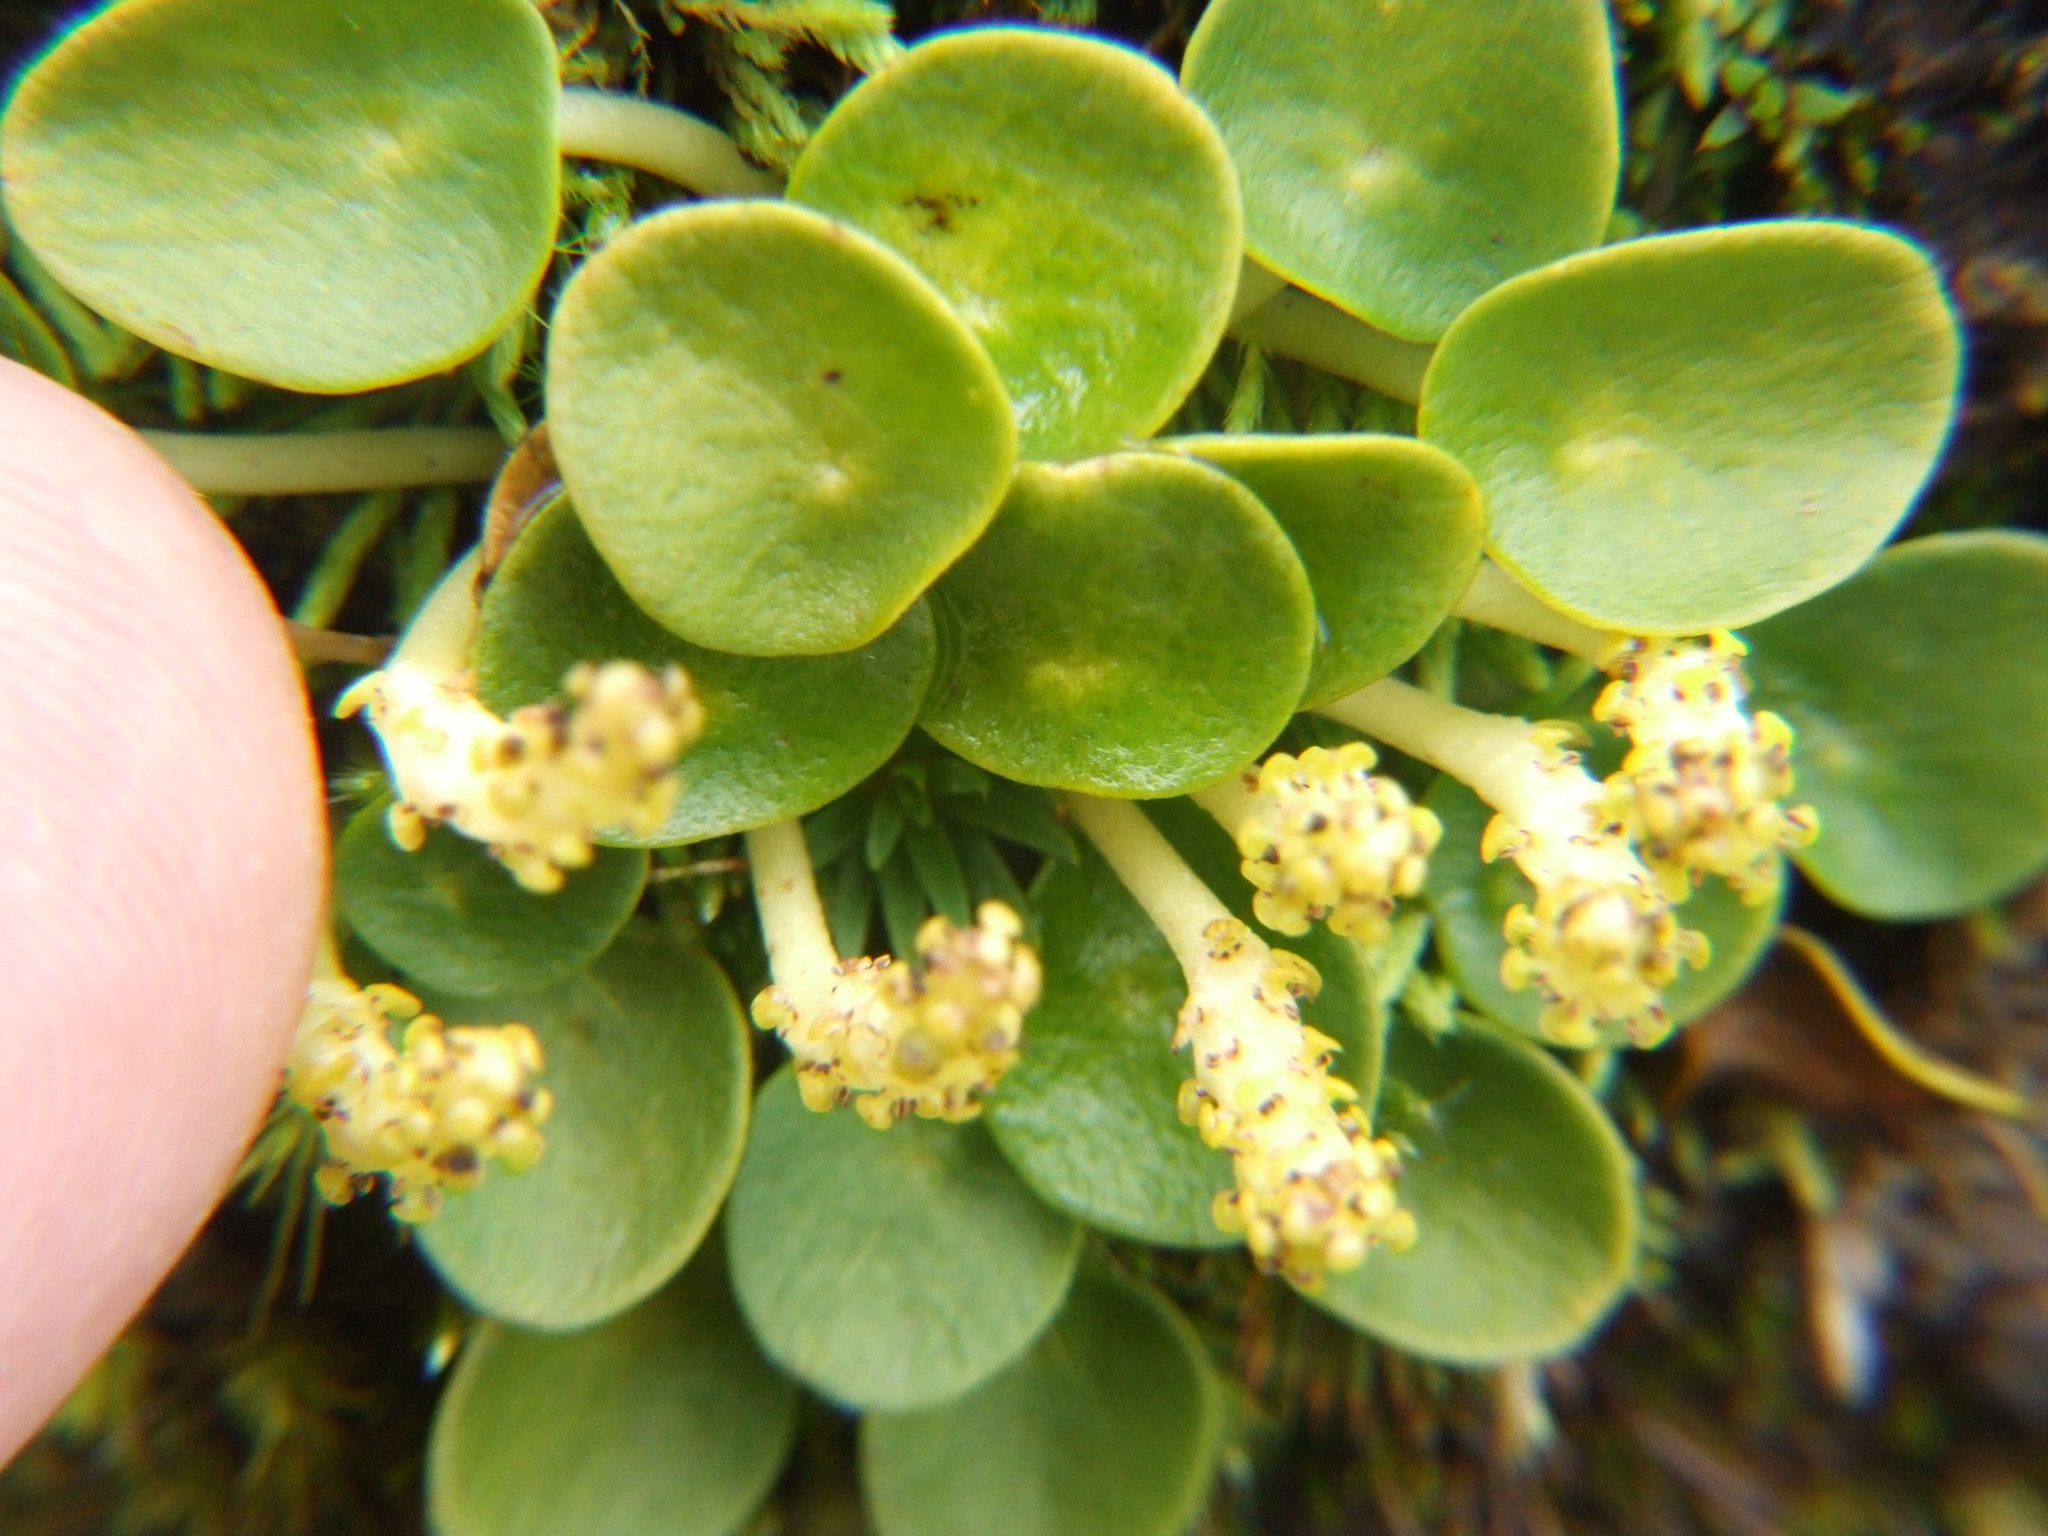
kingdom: Plantae
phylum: Tracheophyta
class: Magnoliopsida
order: Piperales
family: Piperaceae
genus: Peperomia
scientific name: Peperomia parvifolia
